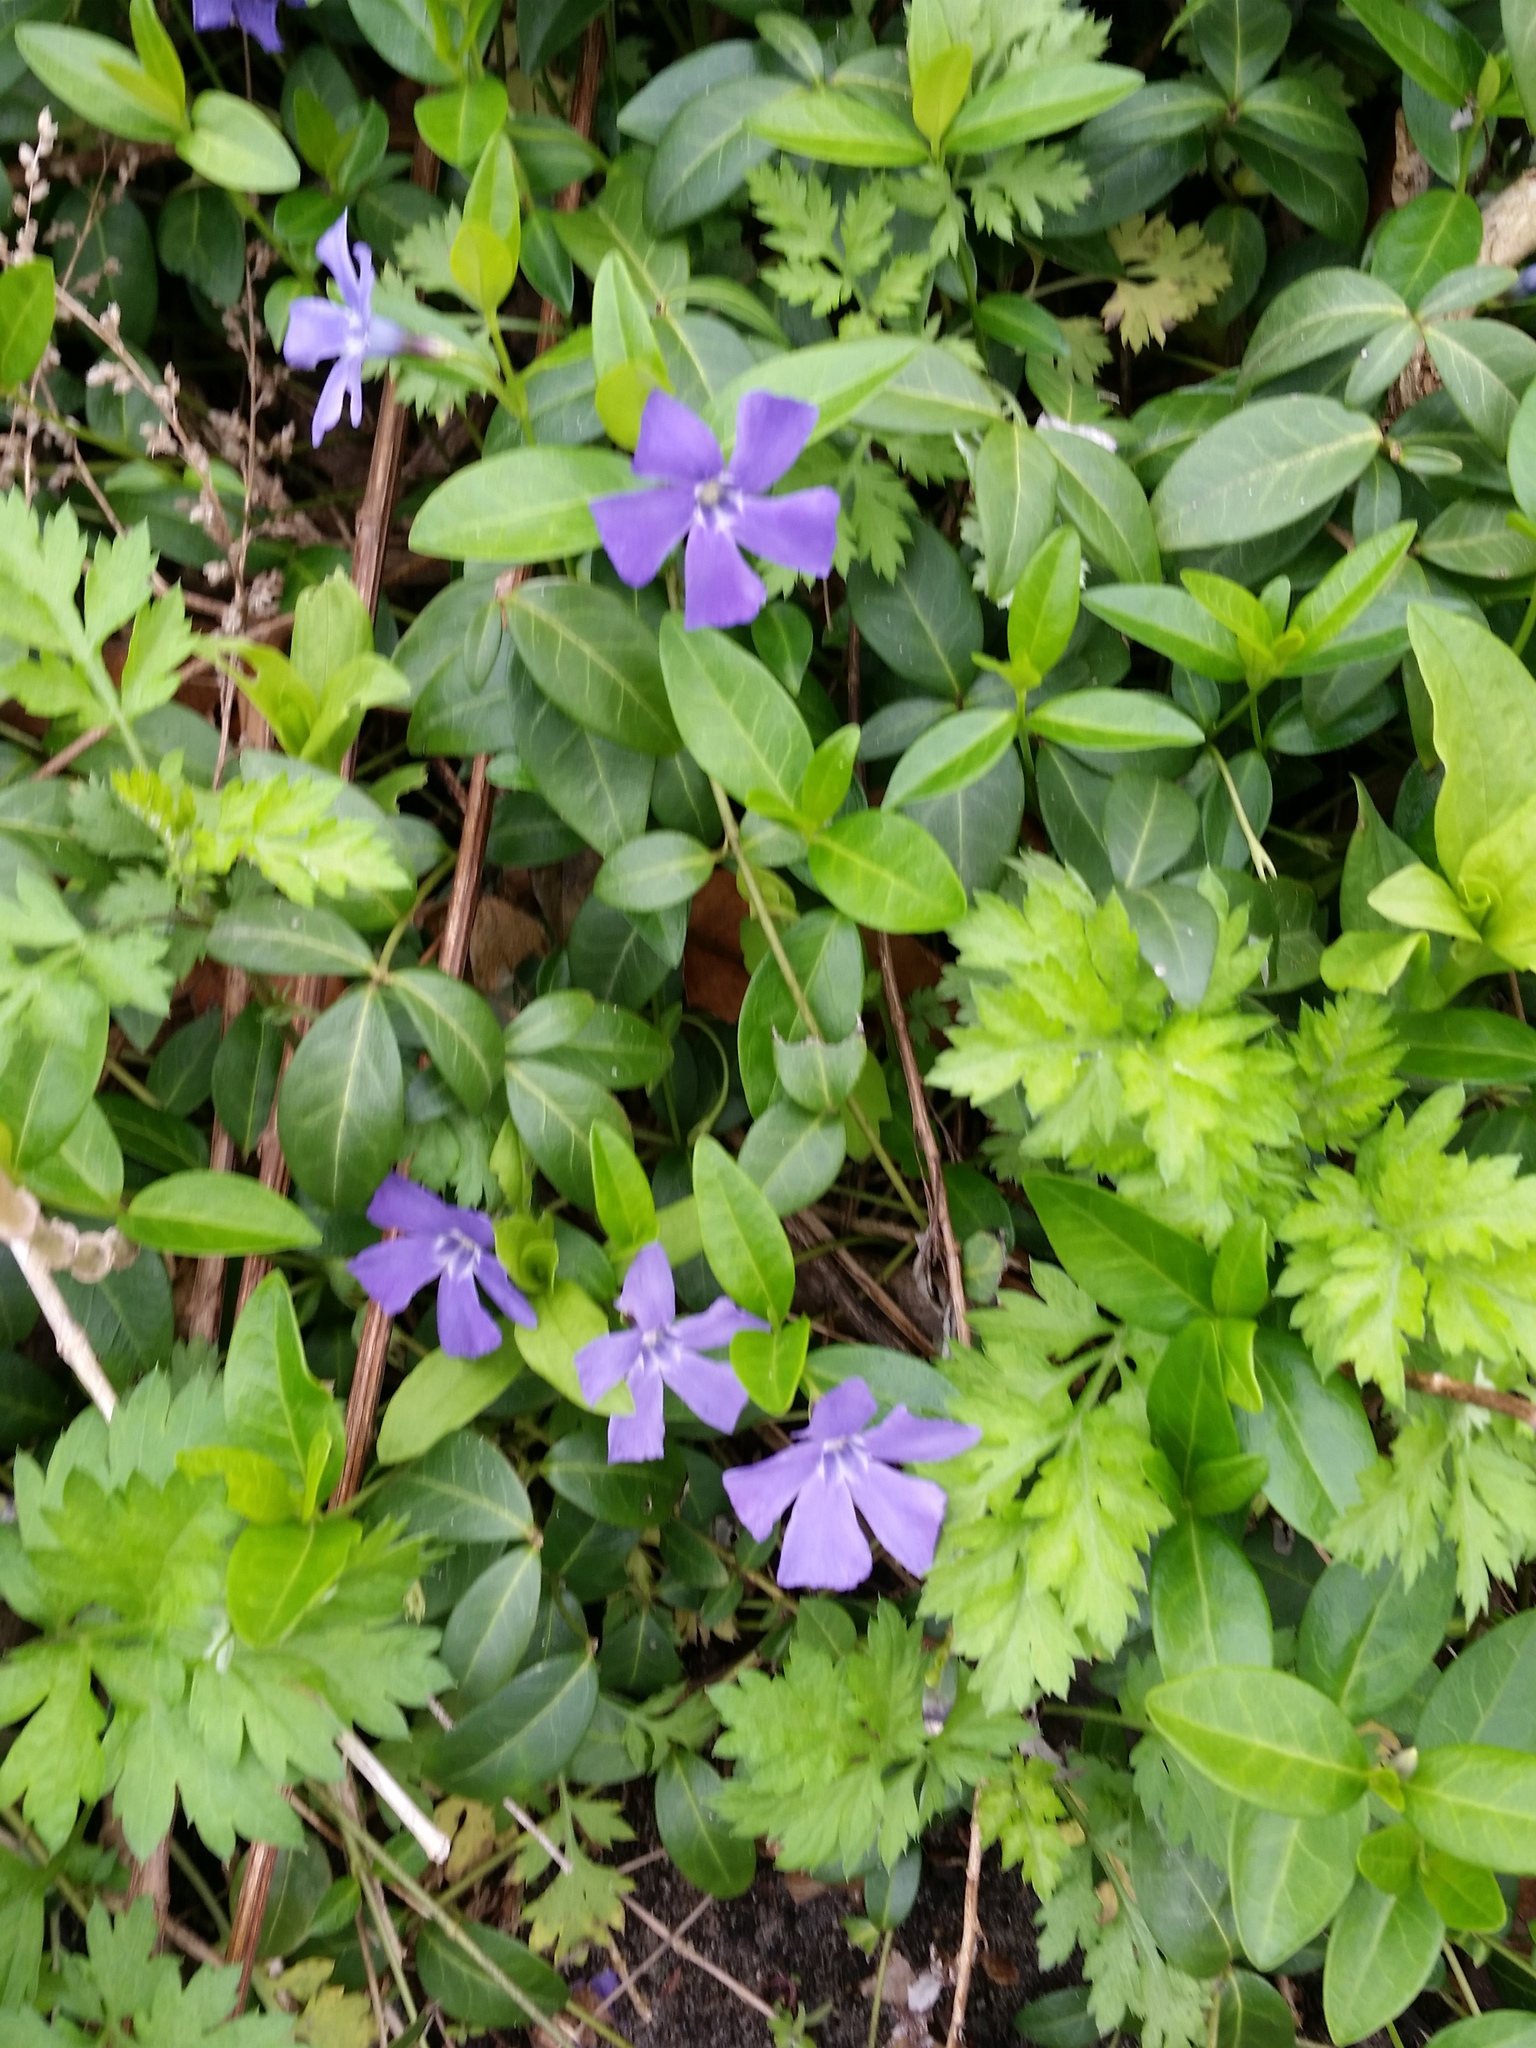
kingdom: Plantae
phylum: Tracheophyta
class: Magnoliopsida
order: Gentianales
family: Apocynaceae
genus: Vinca
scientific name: Vinca minor
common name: Lesser periwinkle
